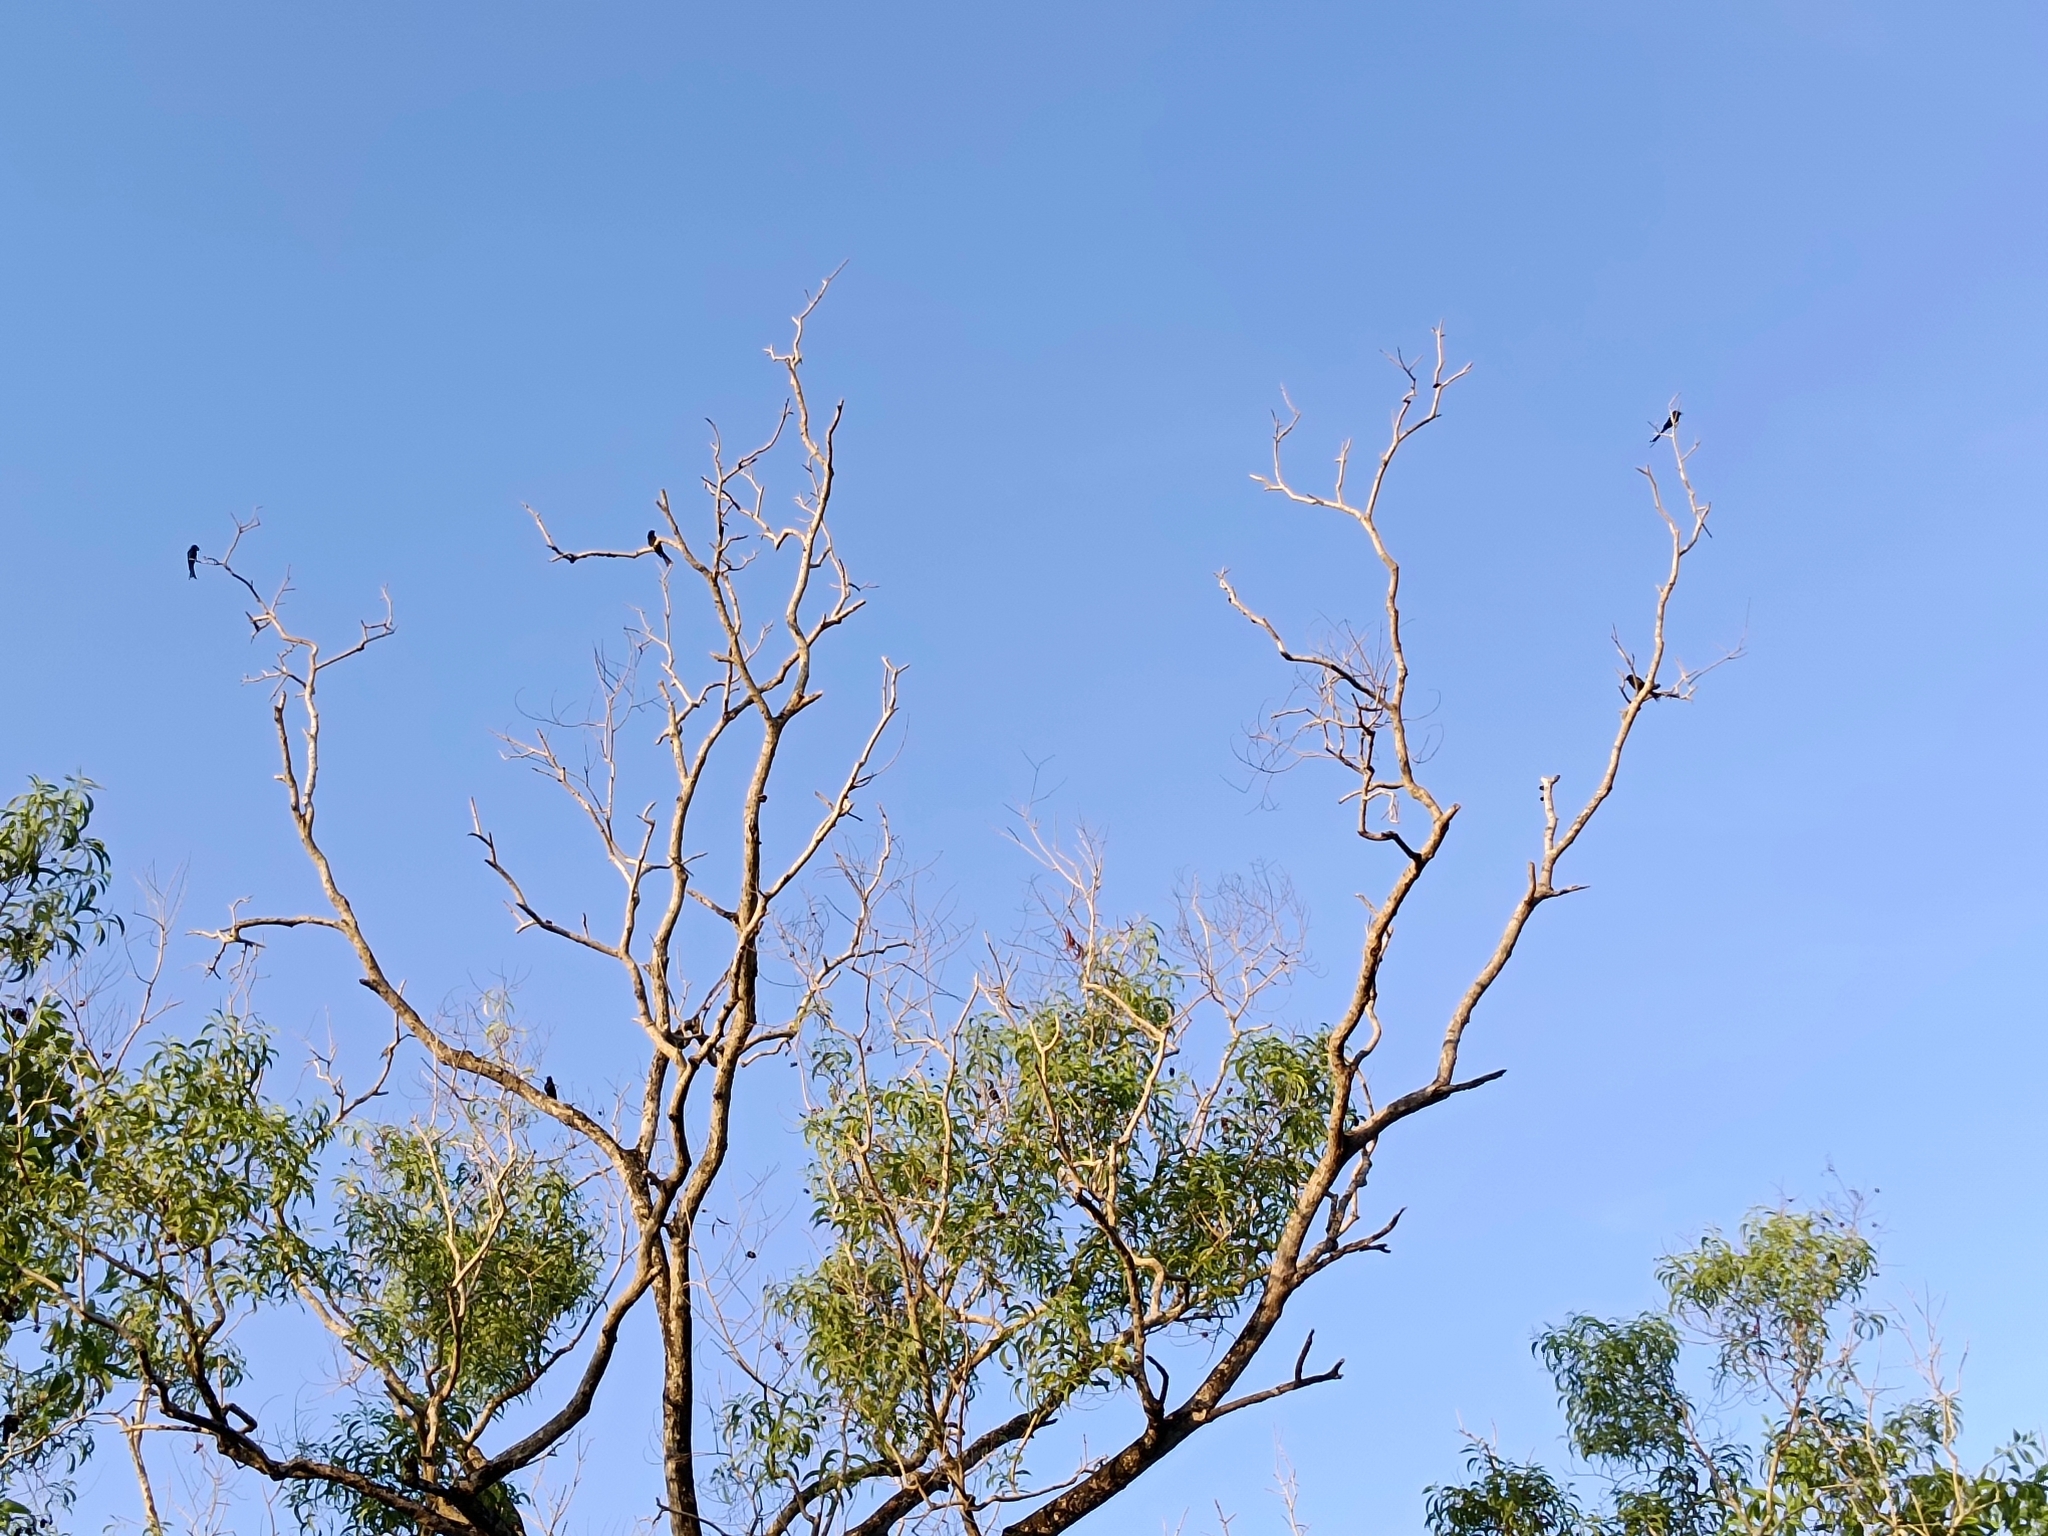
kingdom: Animalia
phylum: Chordata
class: Aves
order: Passeriformes
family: Dicruridae
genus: Dicrurus
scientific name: Dicrurus macrocercus
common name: Black drongo
